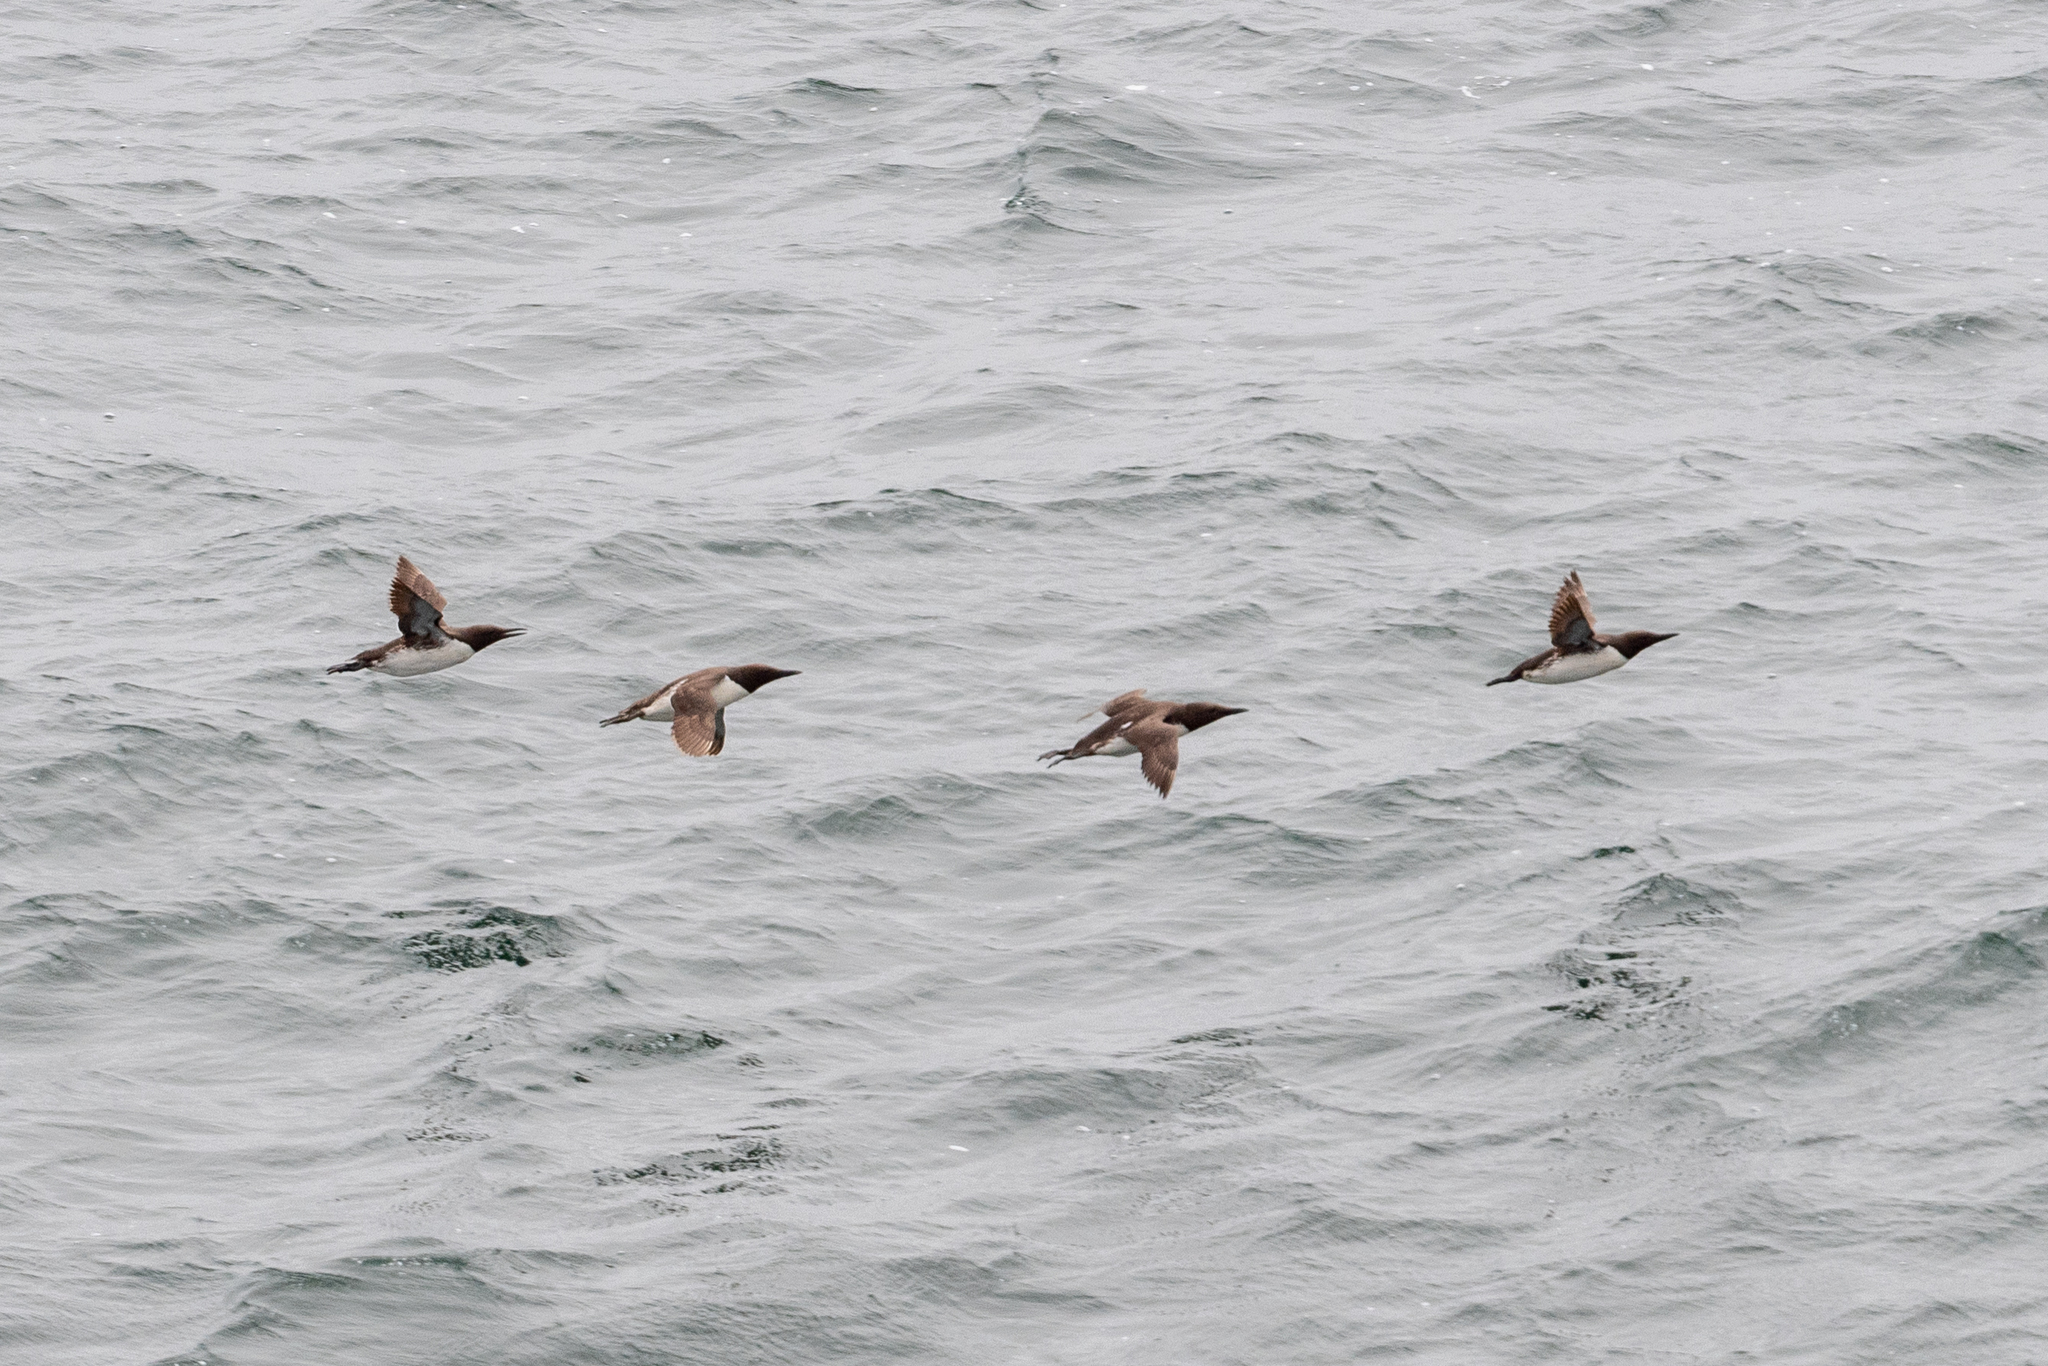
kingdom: Animalia
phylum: Chordata
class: Aves
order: Charadriiformes
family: Alcidae
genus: Uria
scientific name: Uria aalge
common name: Common murre
